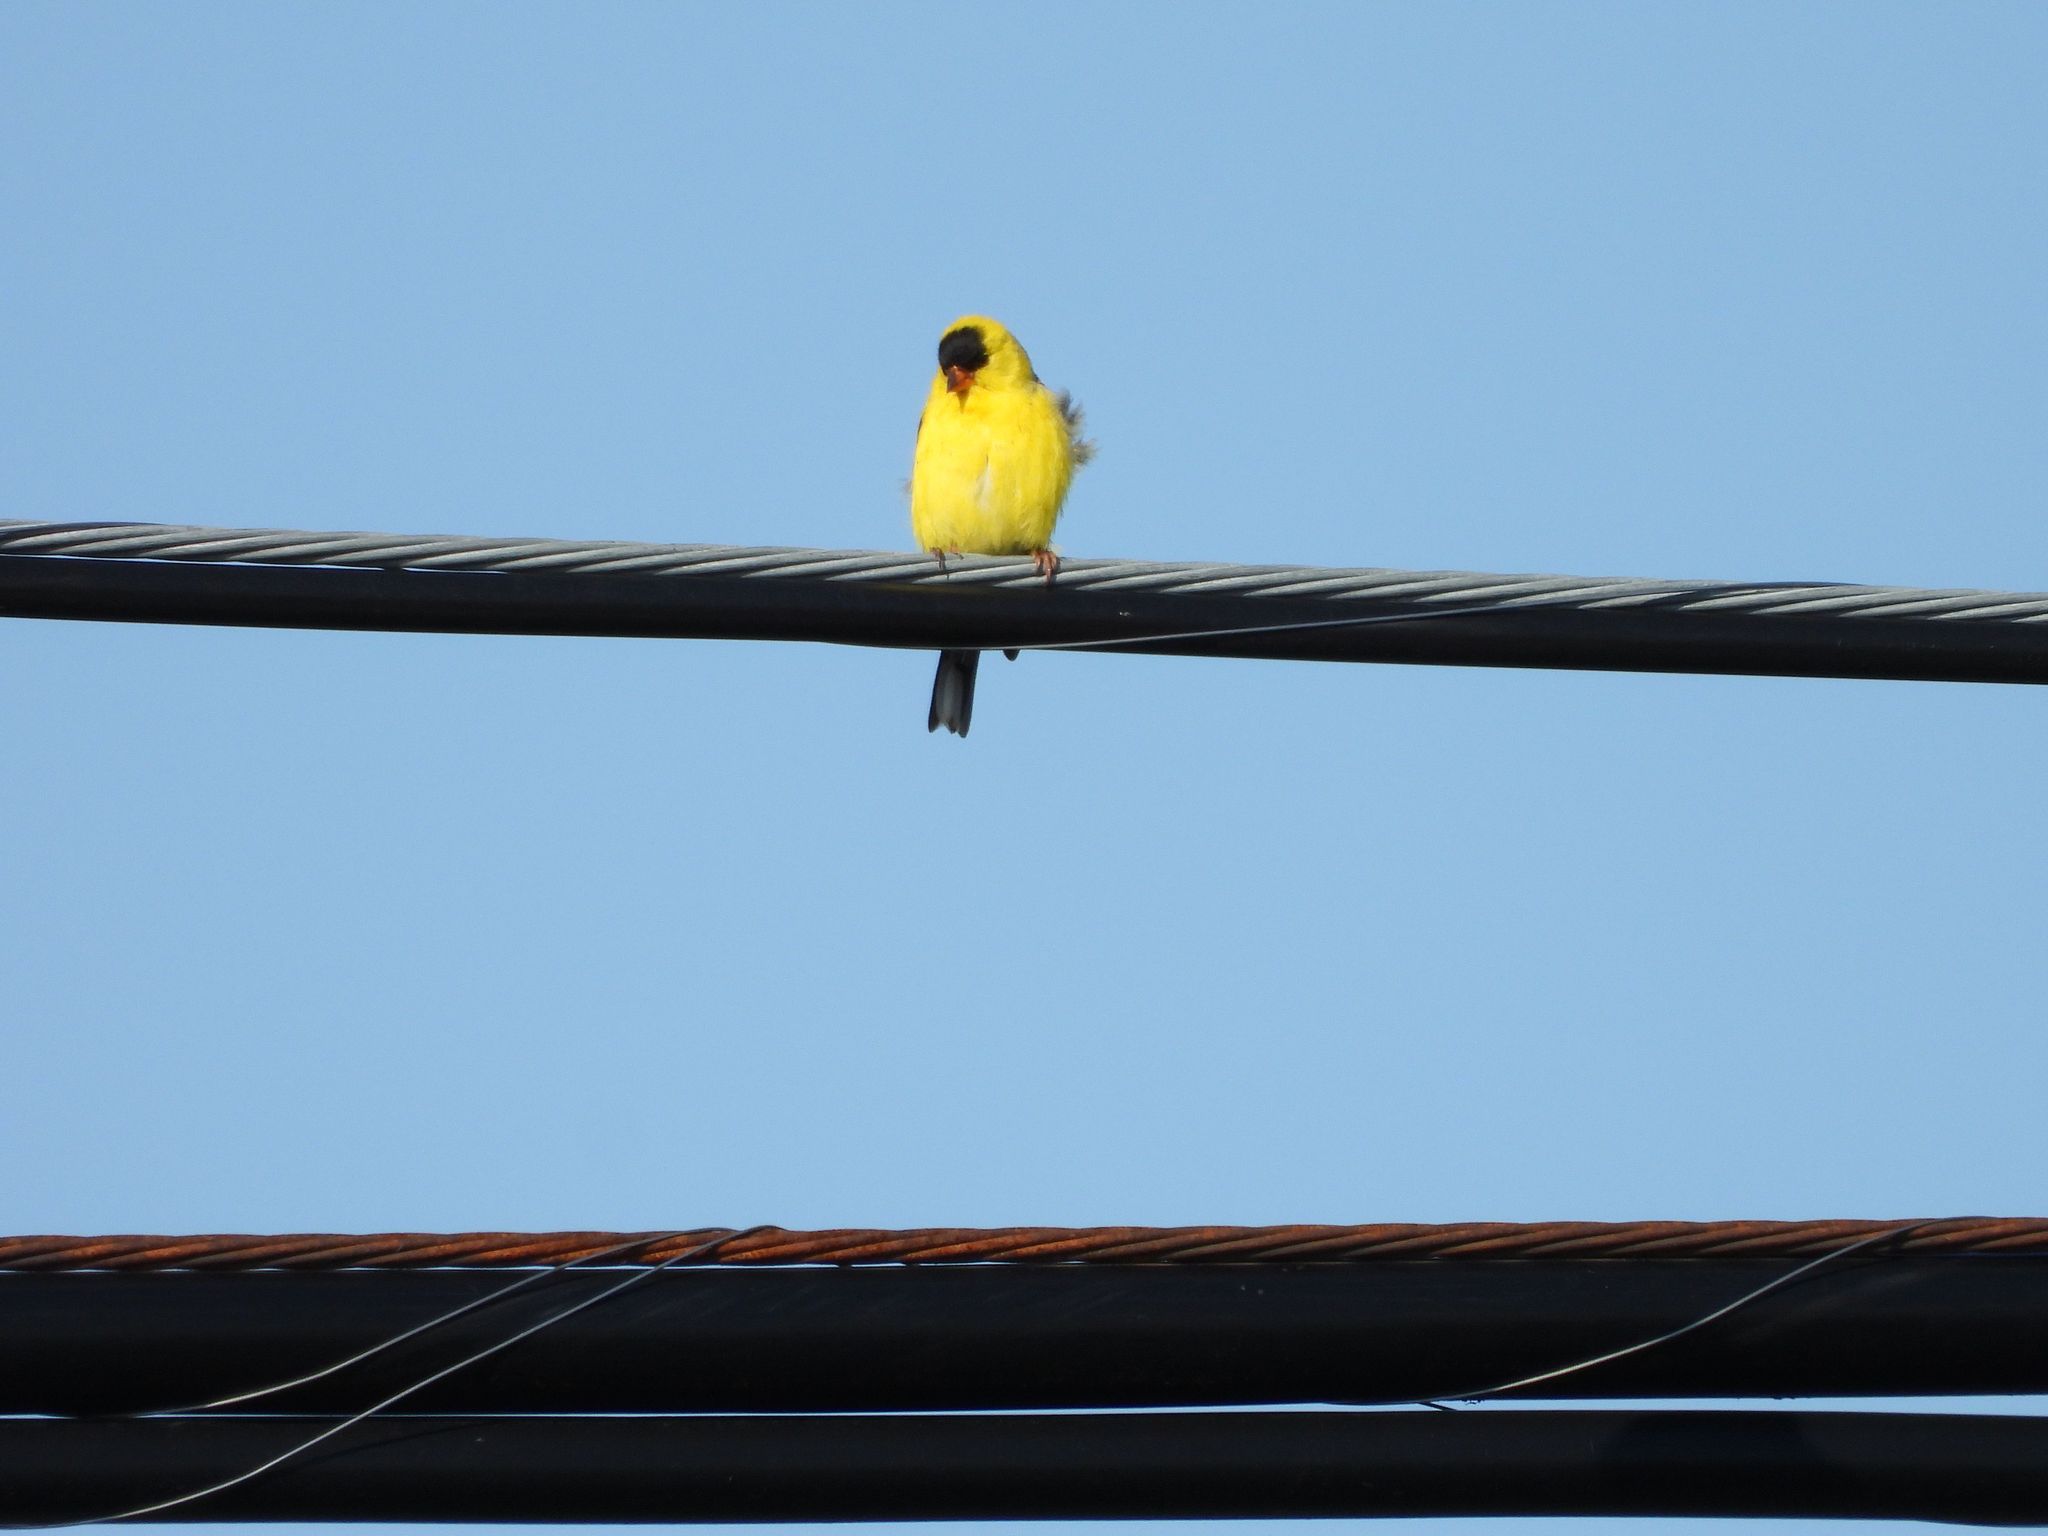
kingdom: Animalia
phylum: Chordata
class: Aves
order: Passeriformes
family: Fringillidae
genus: Spinus
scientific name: Spinus tristis
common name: American goldfinch
